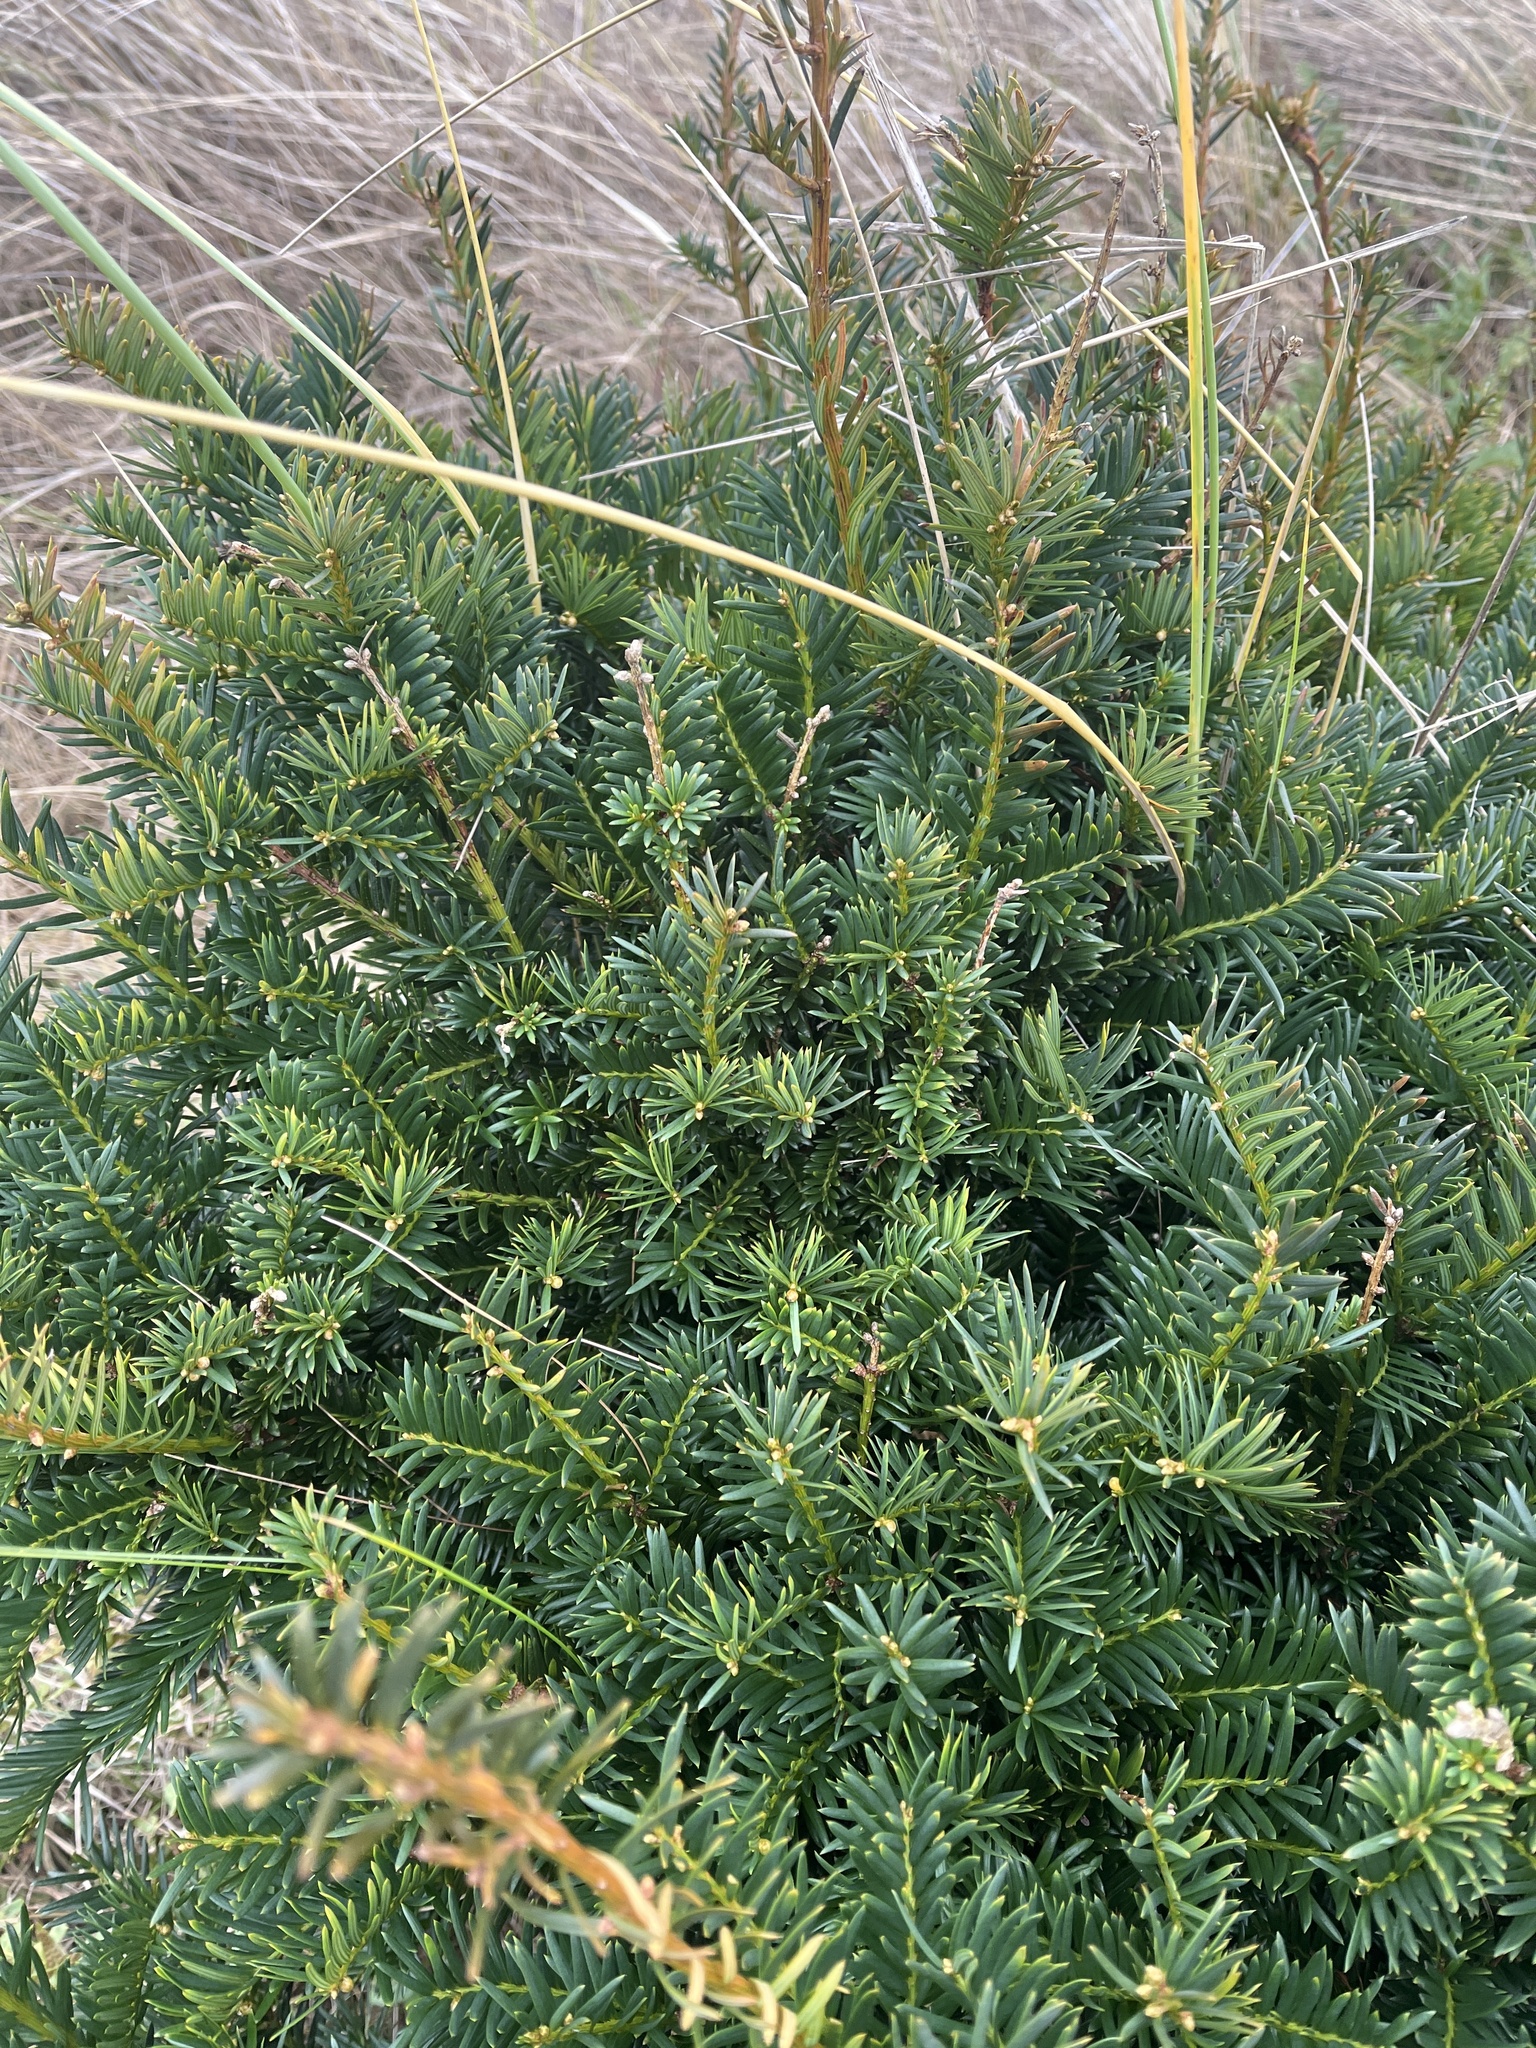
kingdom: Plantae
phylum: Tracheophyta
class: Pinopsida
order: Pinales
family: Taxaceae
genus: Taxus
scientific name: Taxus baccata
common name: Yew
